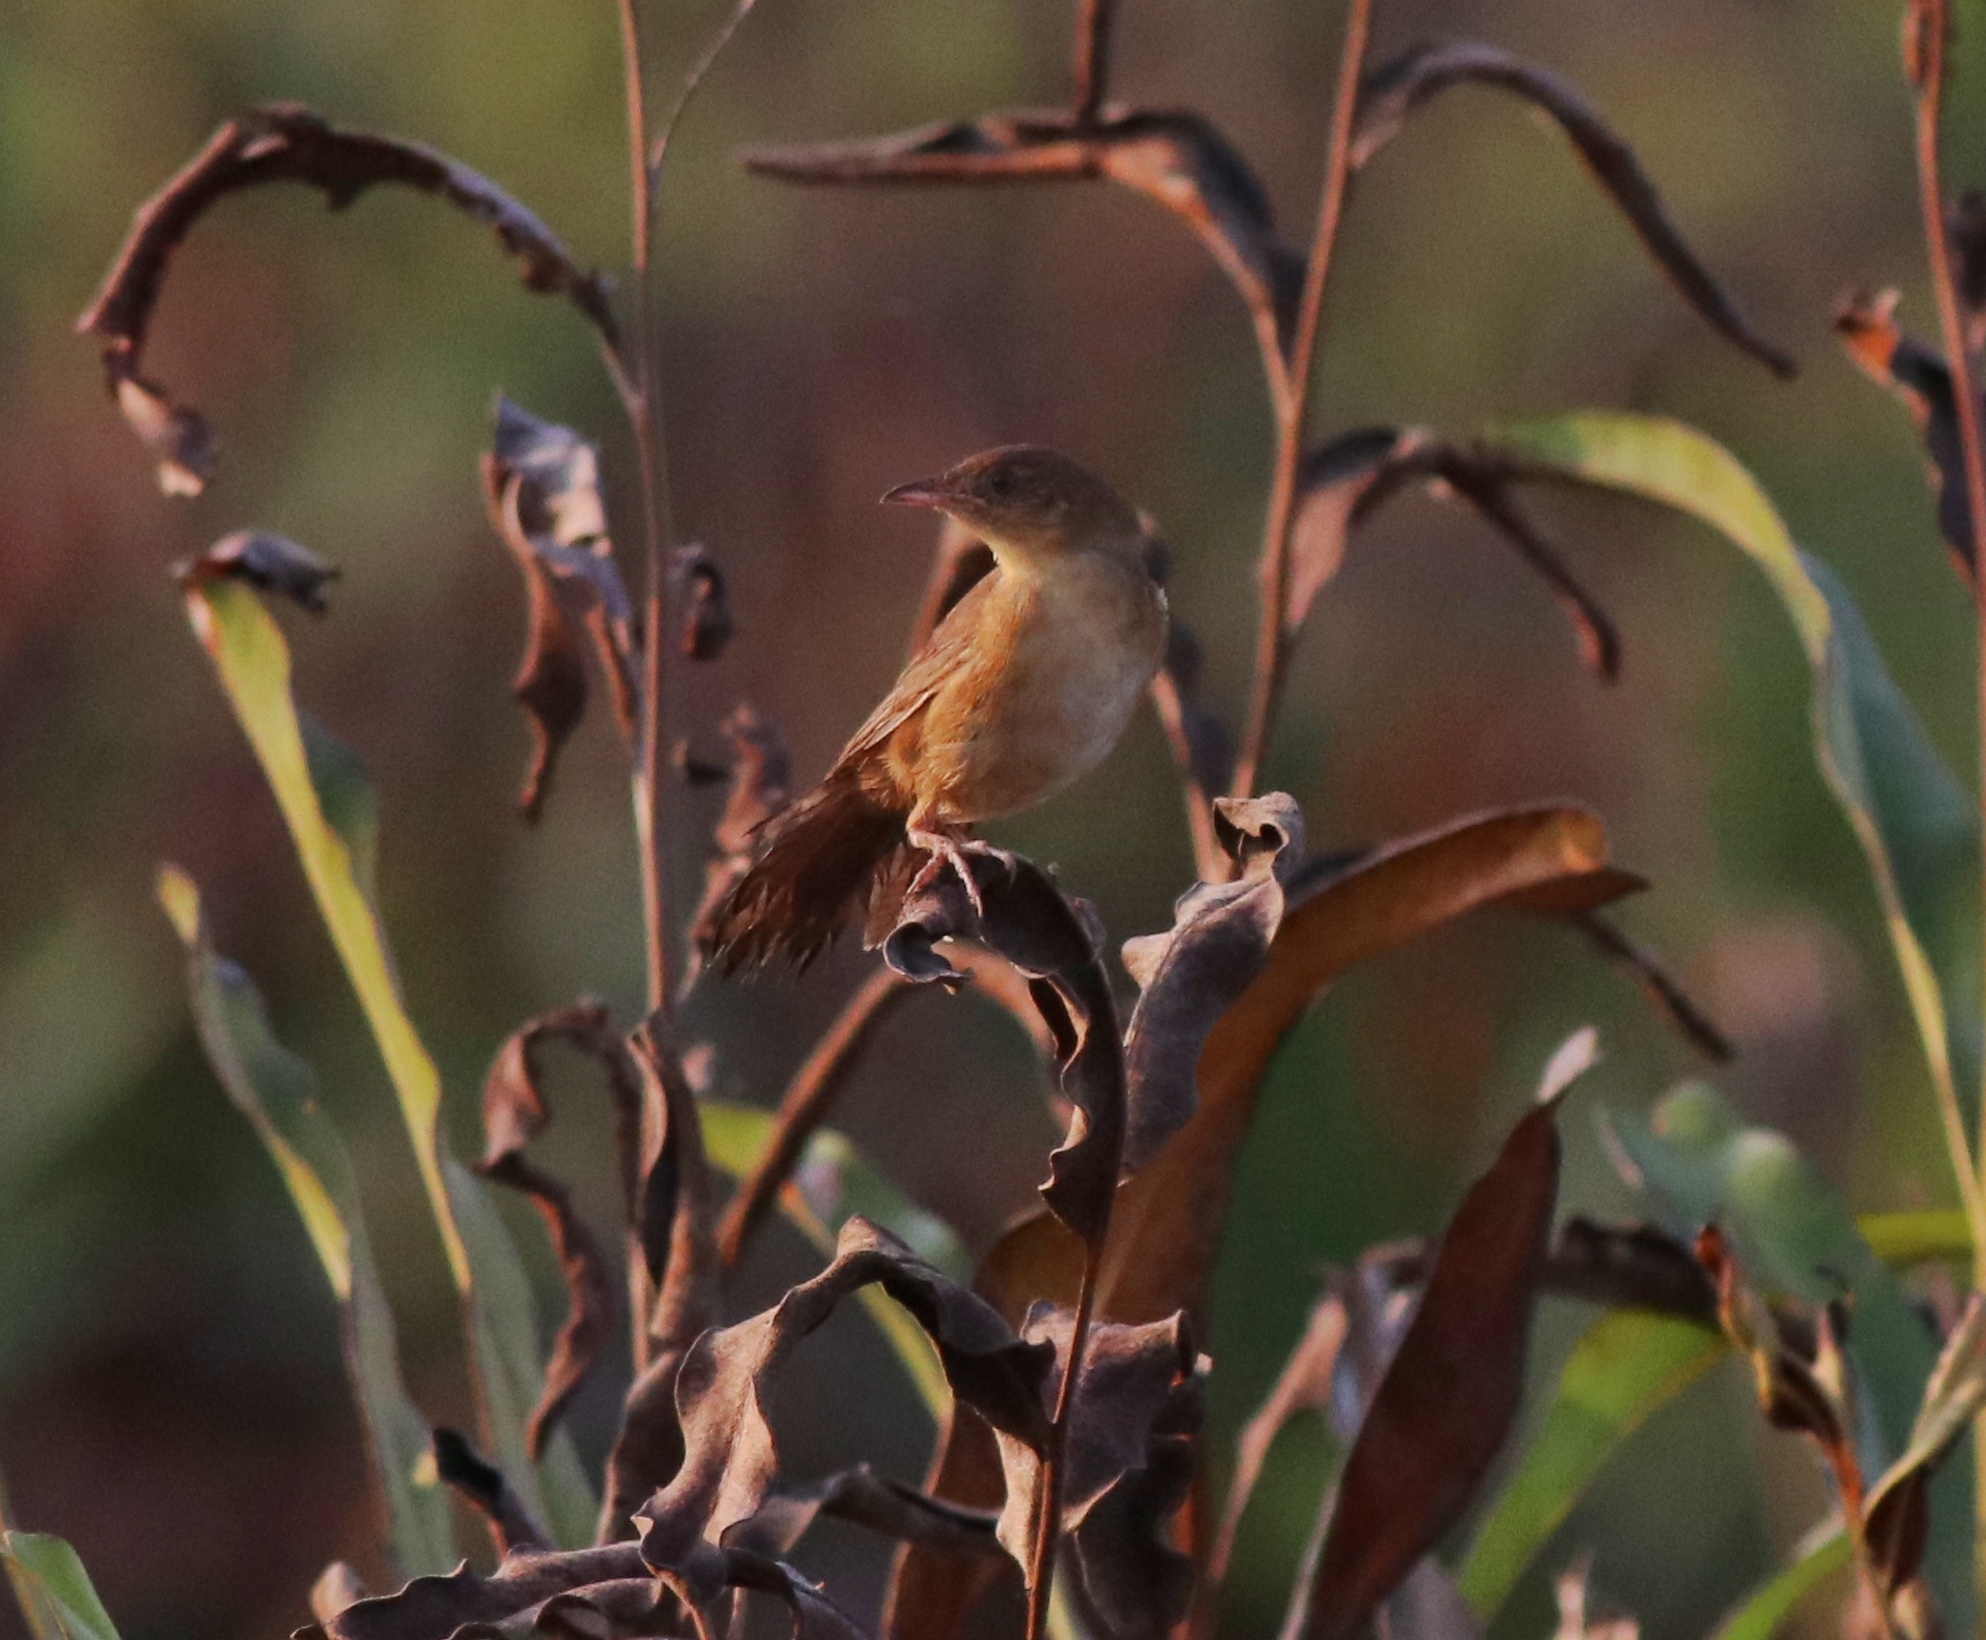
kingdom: Animalia
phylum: Chordata
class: Aves
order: Passeriformes
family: Locustellidae
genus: Schoenicola
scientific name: Schoenicola platyurus
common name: Broad-tailed grassbird
